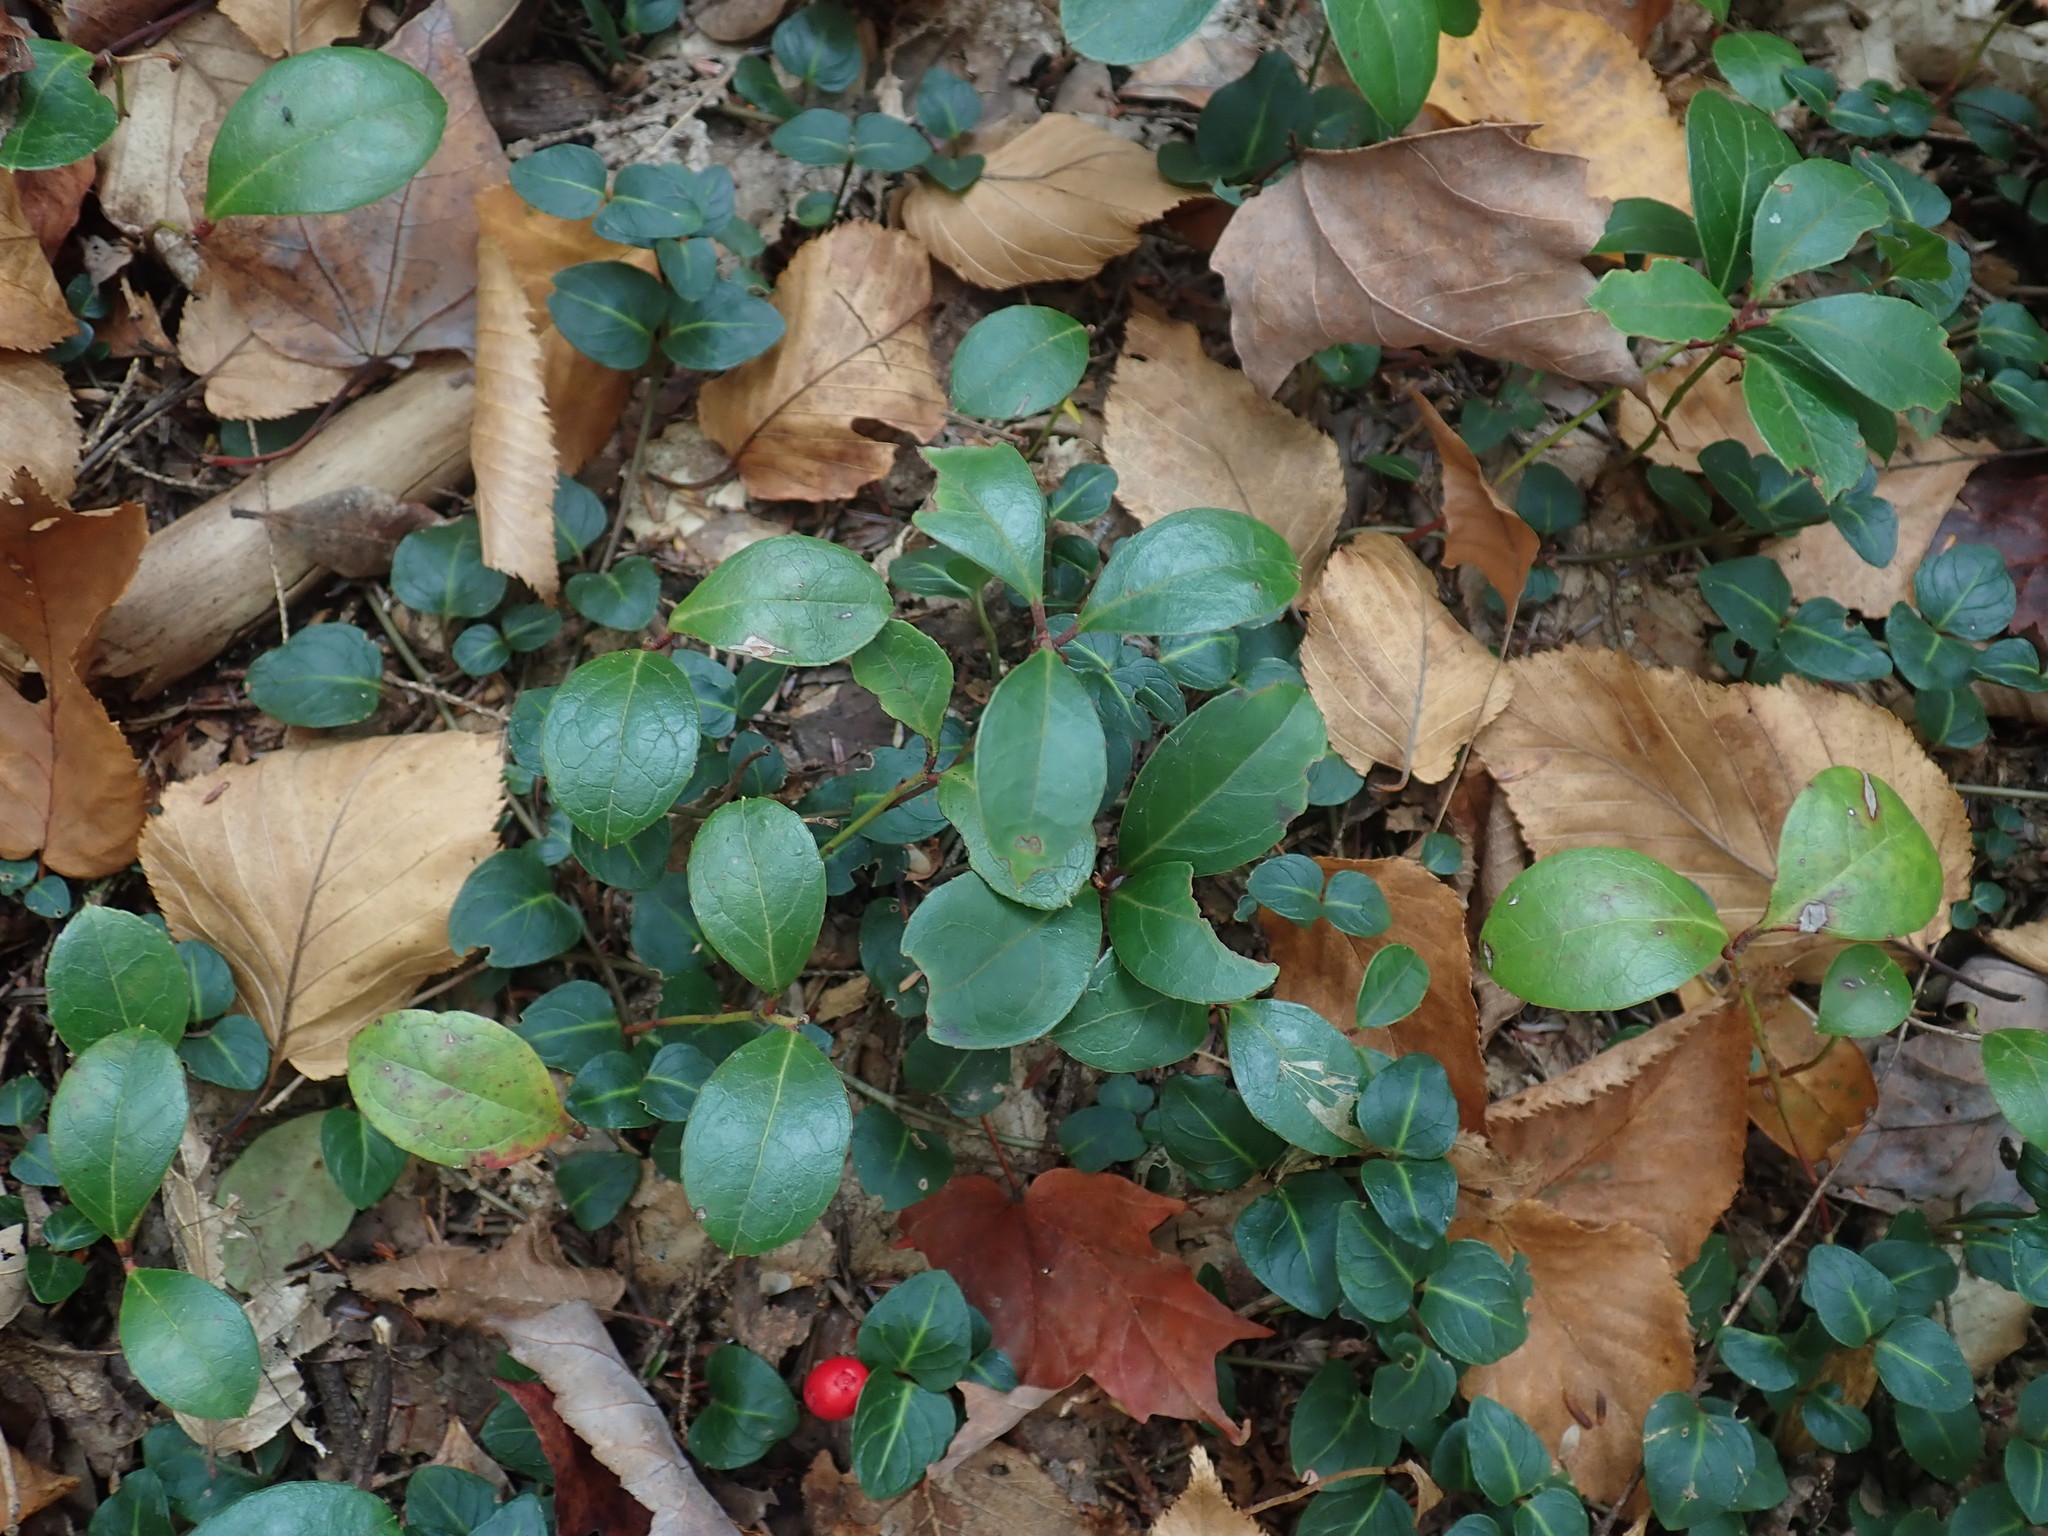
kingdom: Plantae
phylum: Tracheophyta
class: Magnoliopsida
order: Ericales
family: Ericaceae
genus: Gaultheria
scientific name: Gaultheria procumbens
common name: Checkerberry
